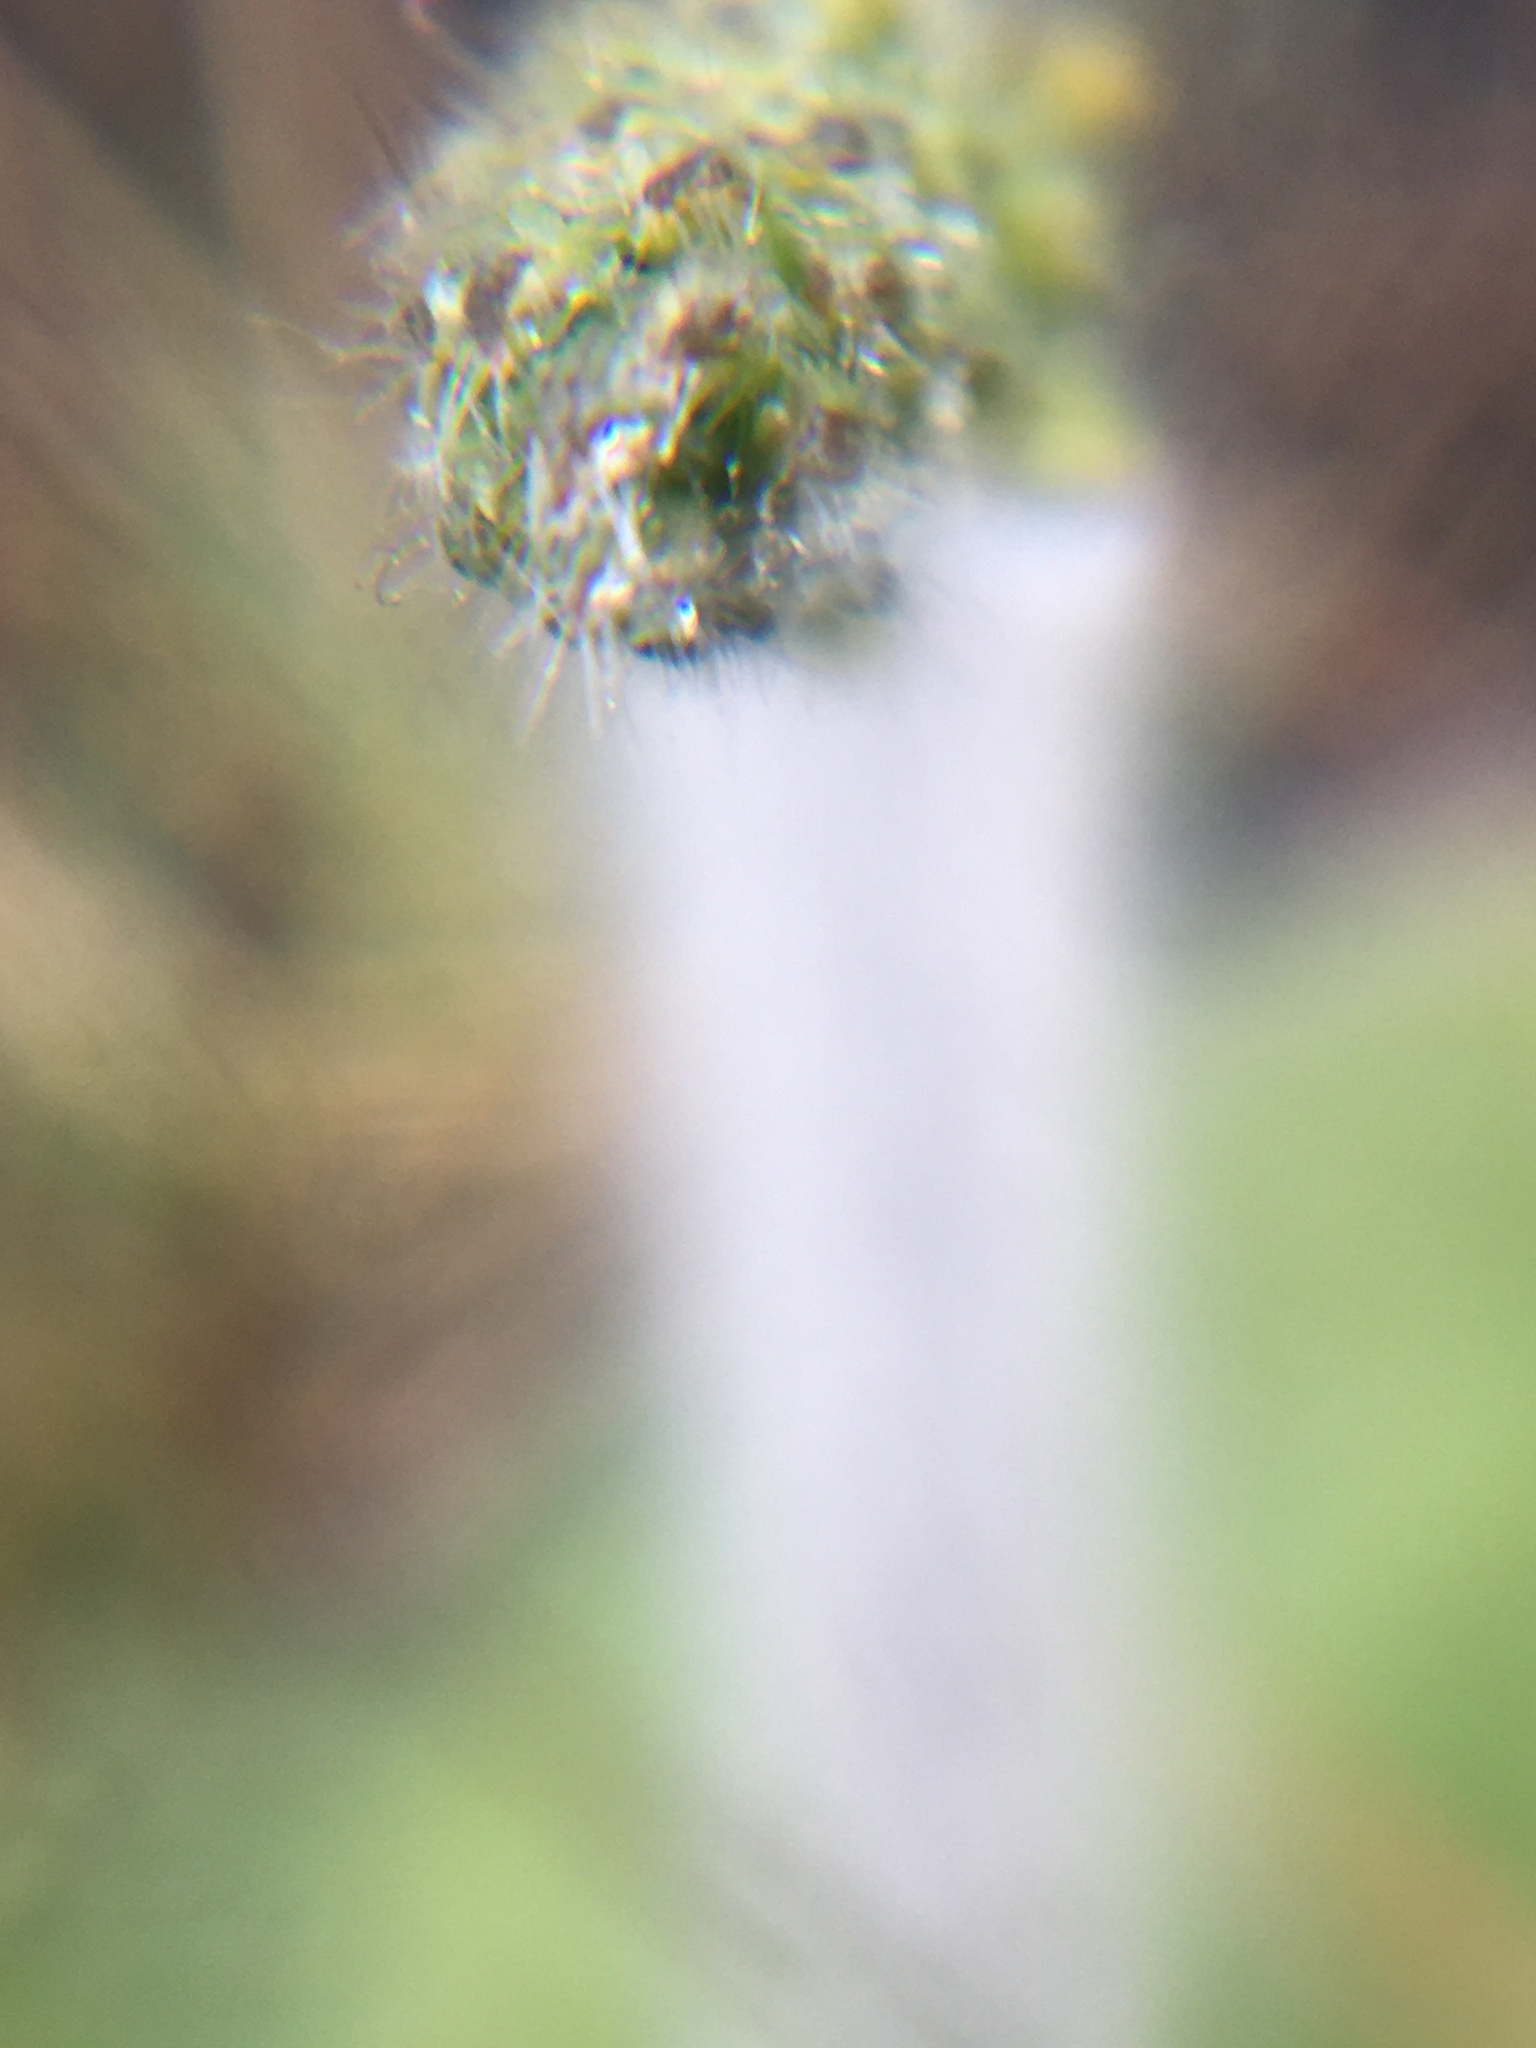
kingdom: Plantae
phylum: Tracheophyta
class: Liliopsida
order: Asparagales
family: Orchidaceae
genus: Holothrix
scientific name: Holothrix villosa
